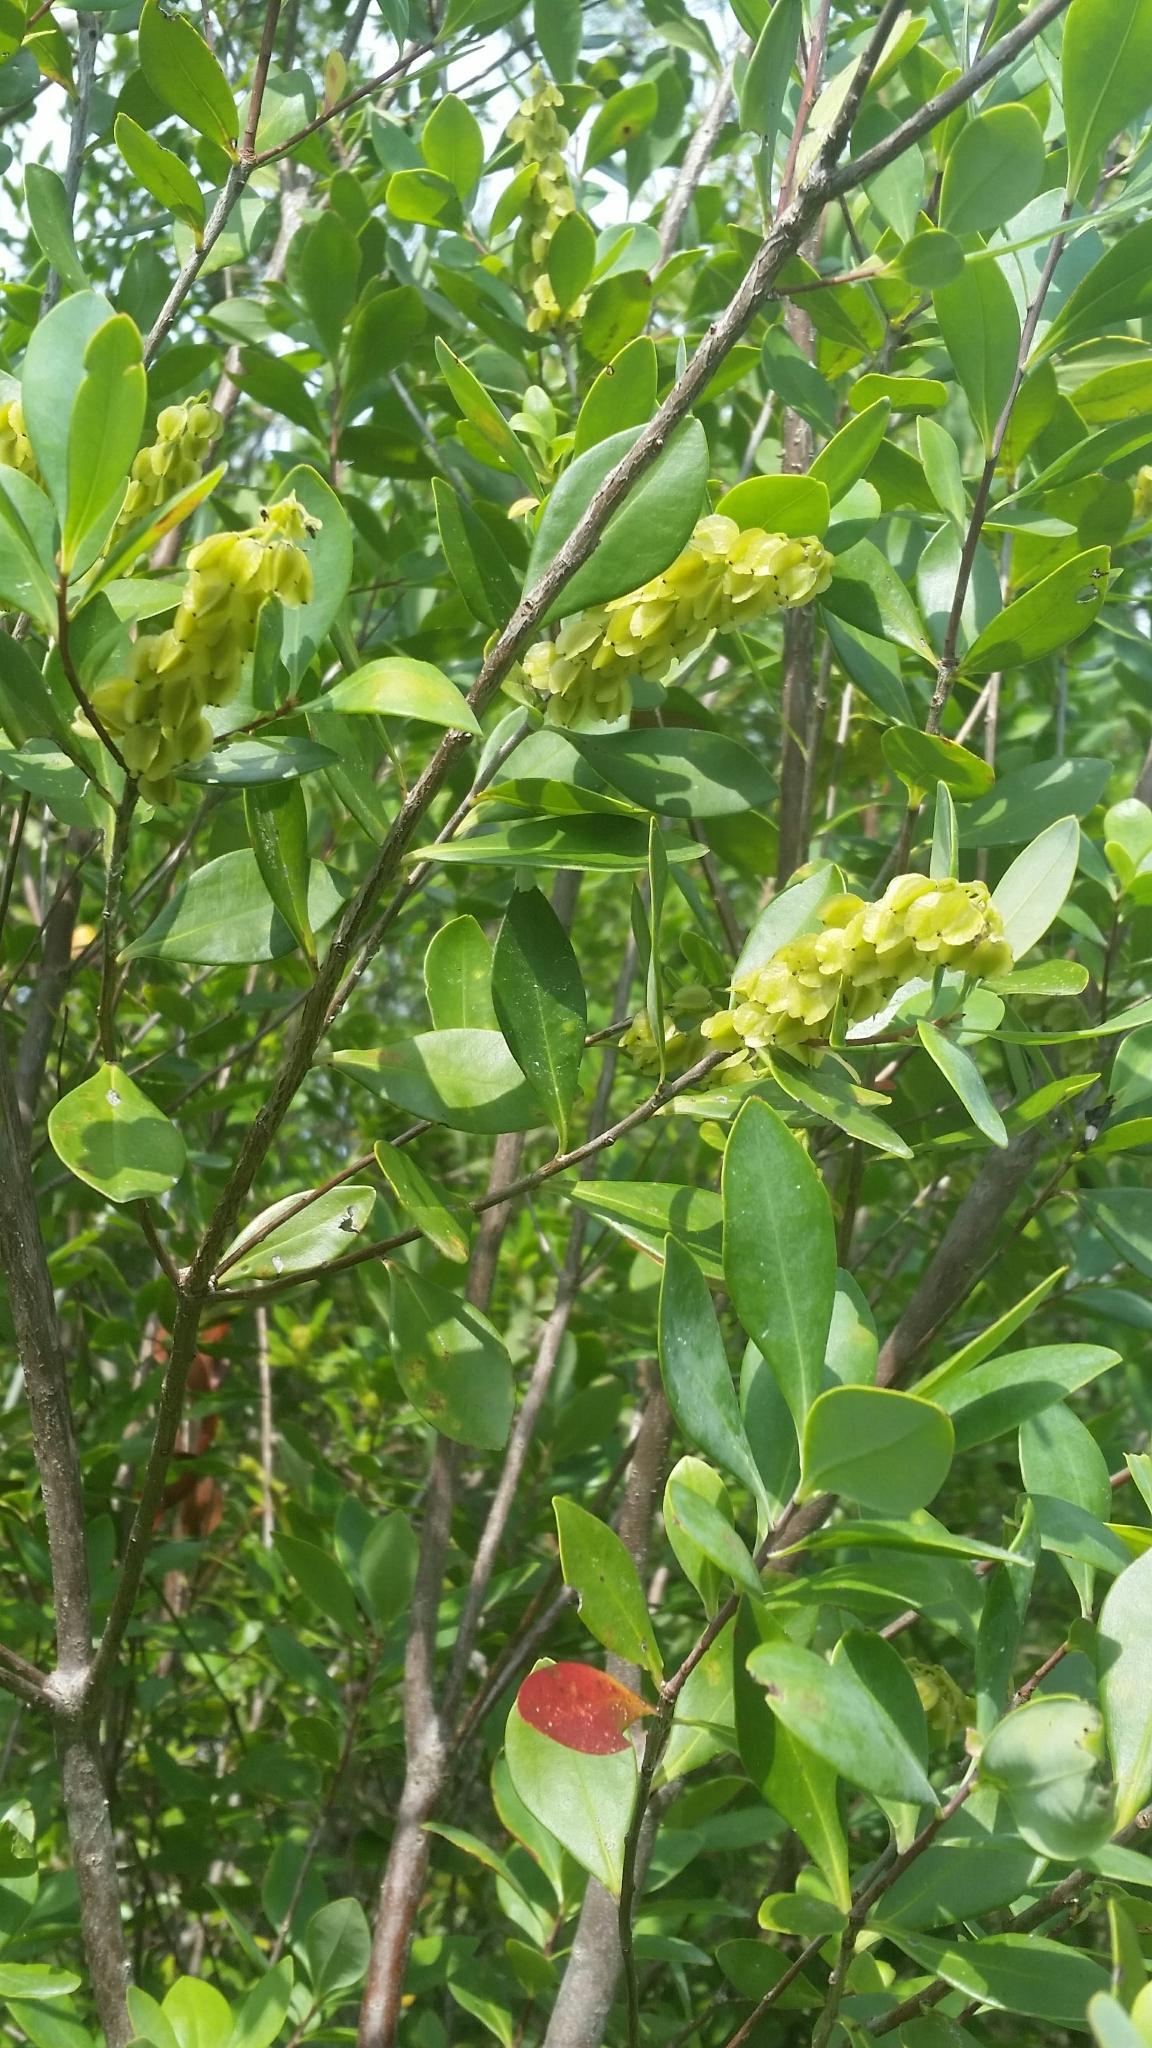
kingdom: Plantae
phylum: Tracheophyta
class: Magnoliopsida
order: Ericales
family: Cyrillaceae
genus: Cliftonia
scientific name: Cliftonia monophylla
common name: Titi
